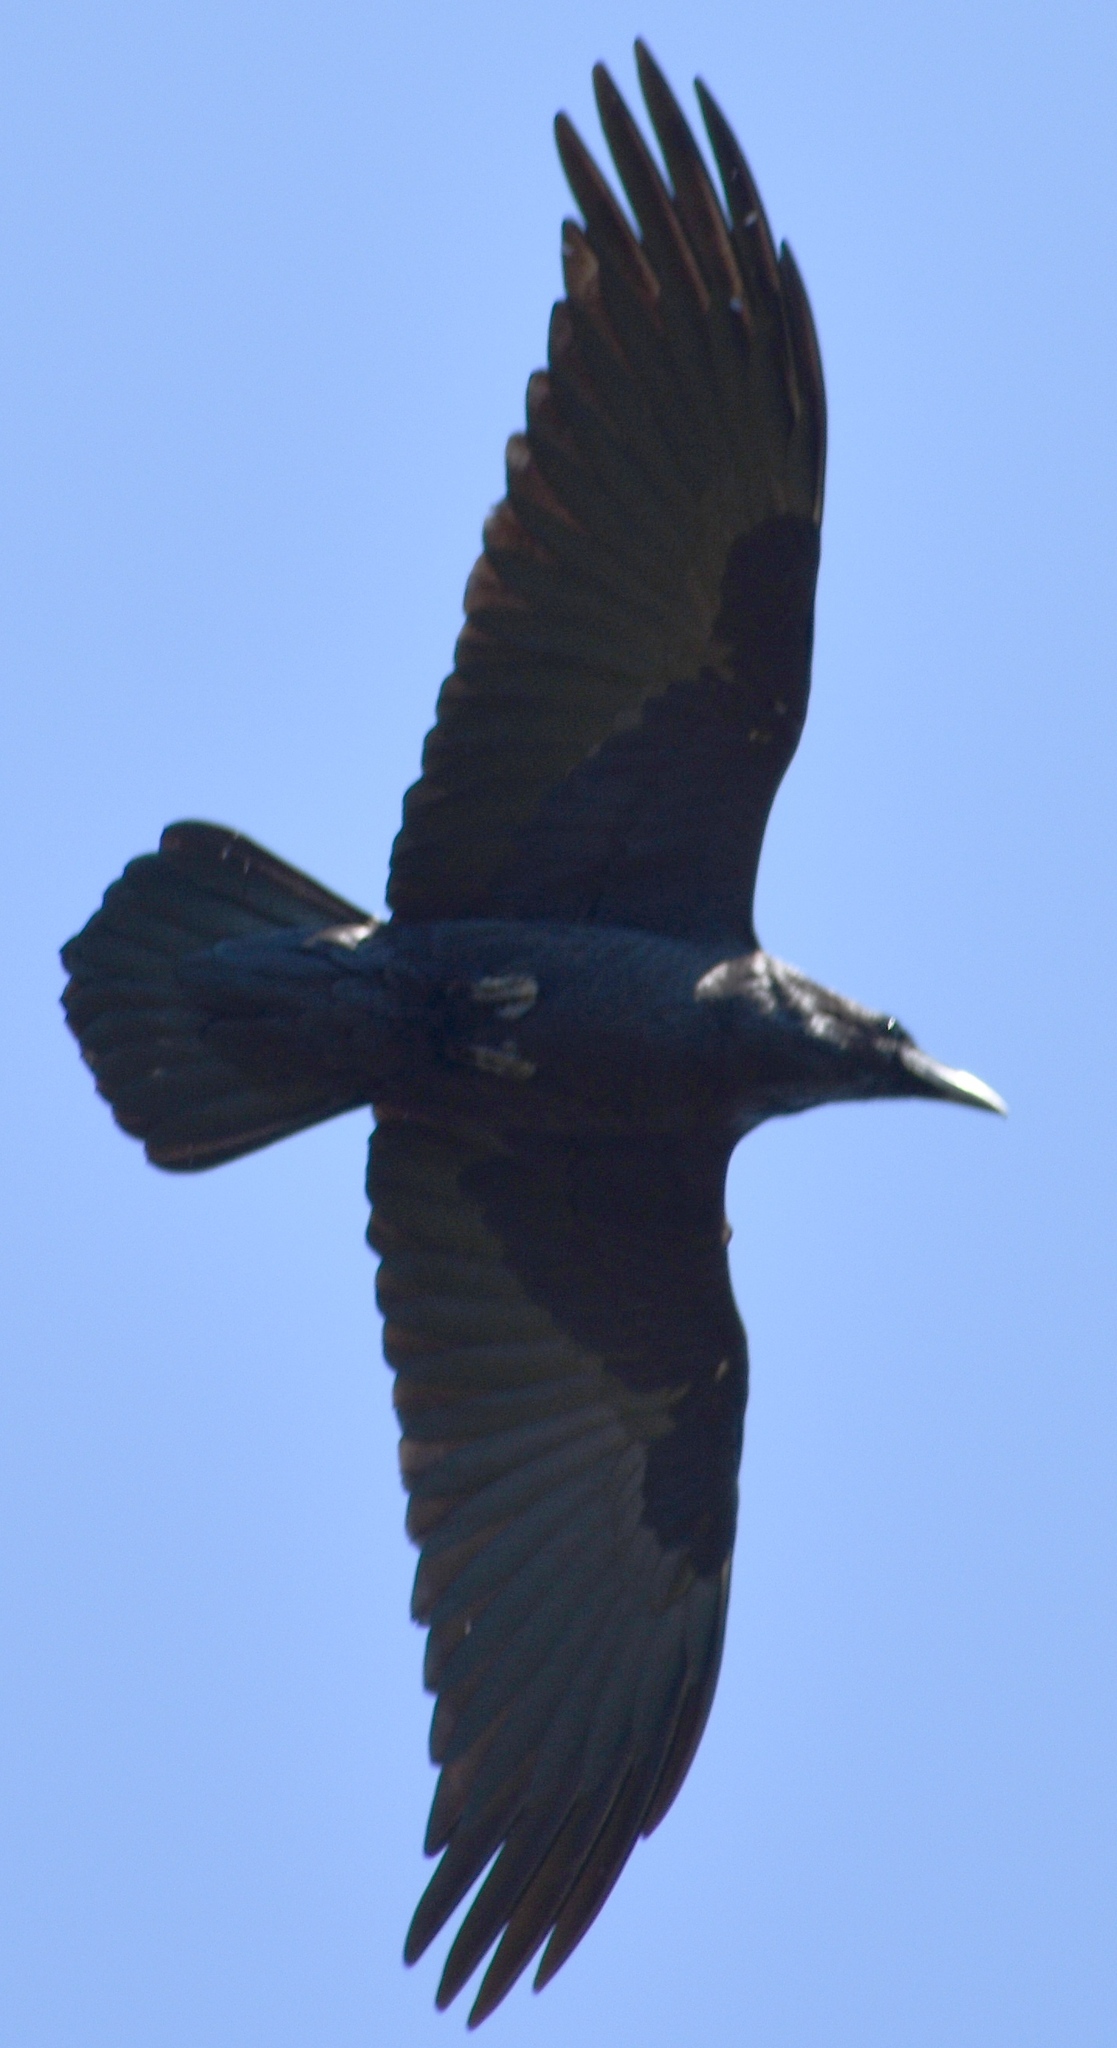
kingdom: Animalia
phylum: Chordata
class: Aves
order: Passeriformes
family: Corvidae
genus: Corvus
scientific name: Corvus corax
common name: Common raven
